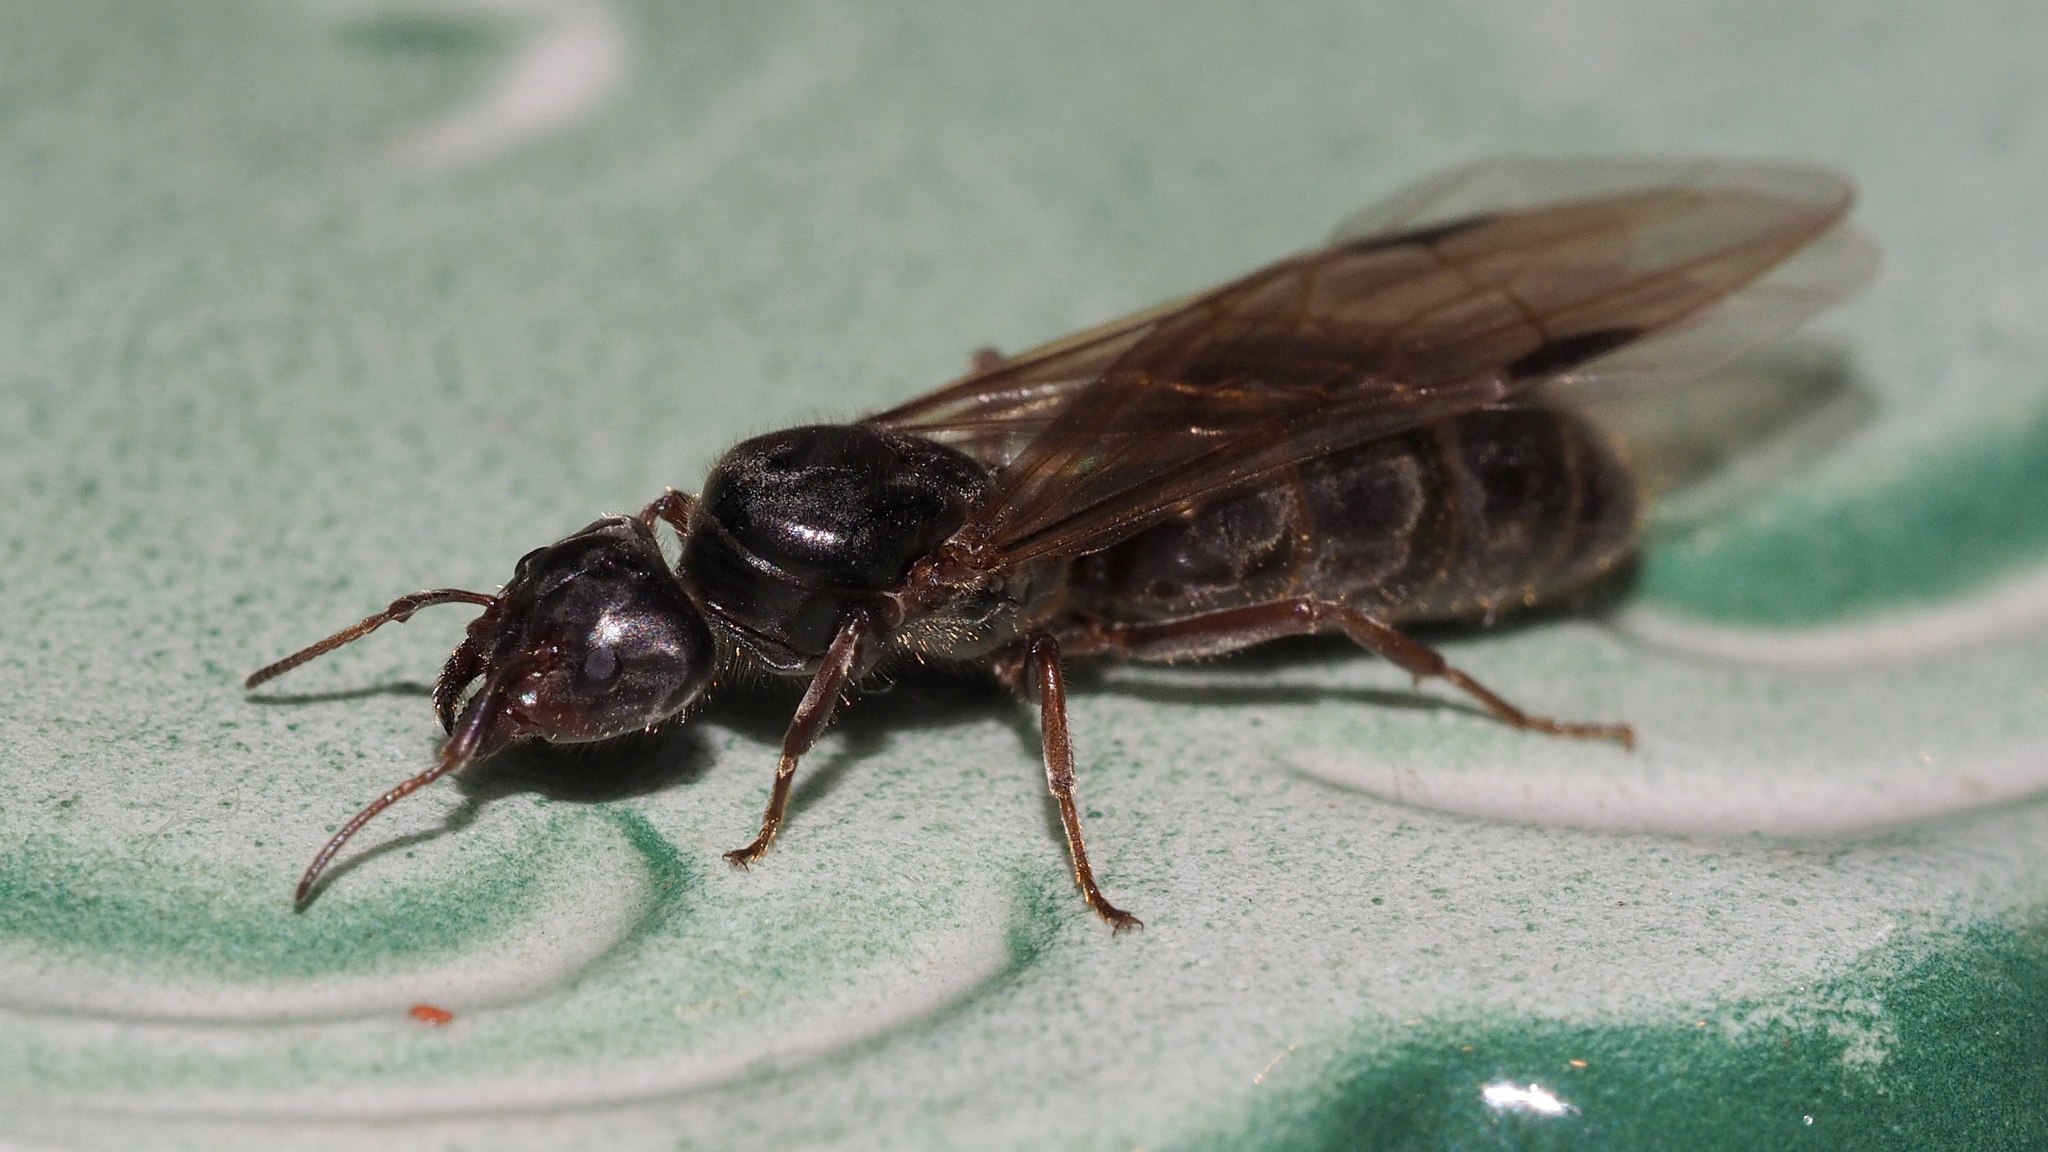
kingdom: Animalia
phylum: Arthropoda
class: Insecta
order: Hymenoptera
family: Formicidae
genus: Liometopum
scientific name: Liometopum microcephalum
